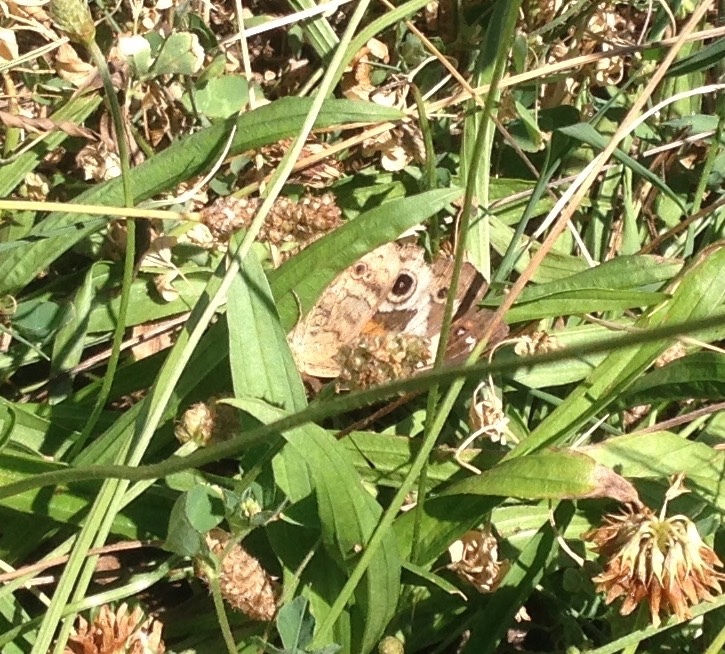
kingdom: Animalia
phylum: Arthropoda
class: Insecta
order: Lepidoptera
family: Nymphalidae
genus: Junonia
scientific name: Junonia coenia
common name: Common buckeye
